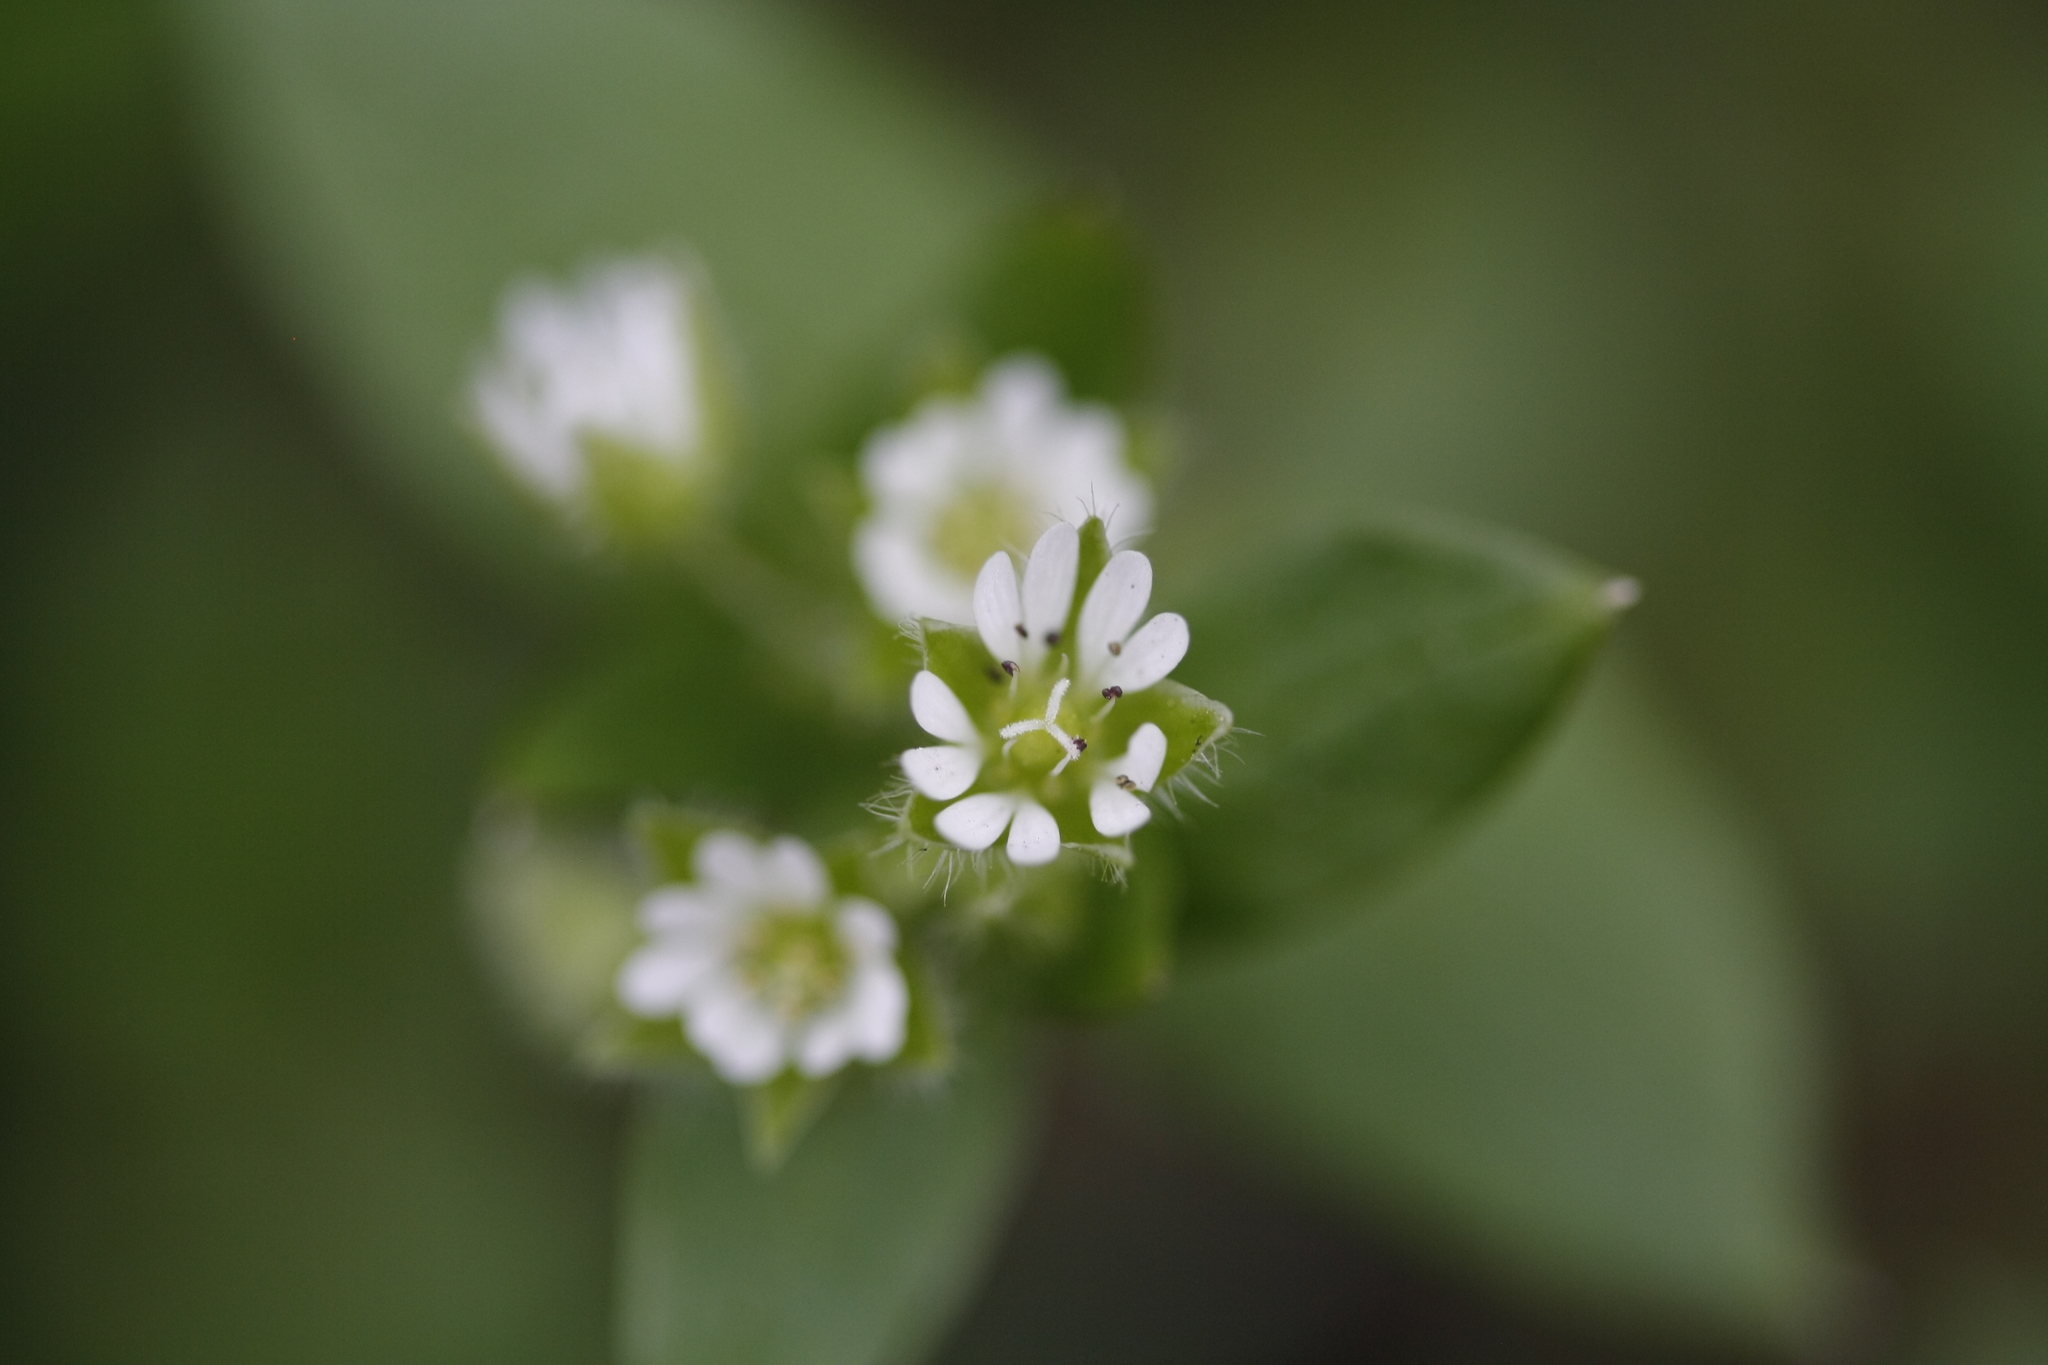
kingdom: Plantae
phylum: Tracheophyta
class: Magnoliopsida
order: Caryophyllales
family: Caryophyllaceae
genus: Stellaria
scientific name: Stellaria media
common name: Common chickweed
